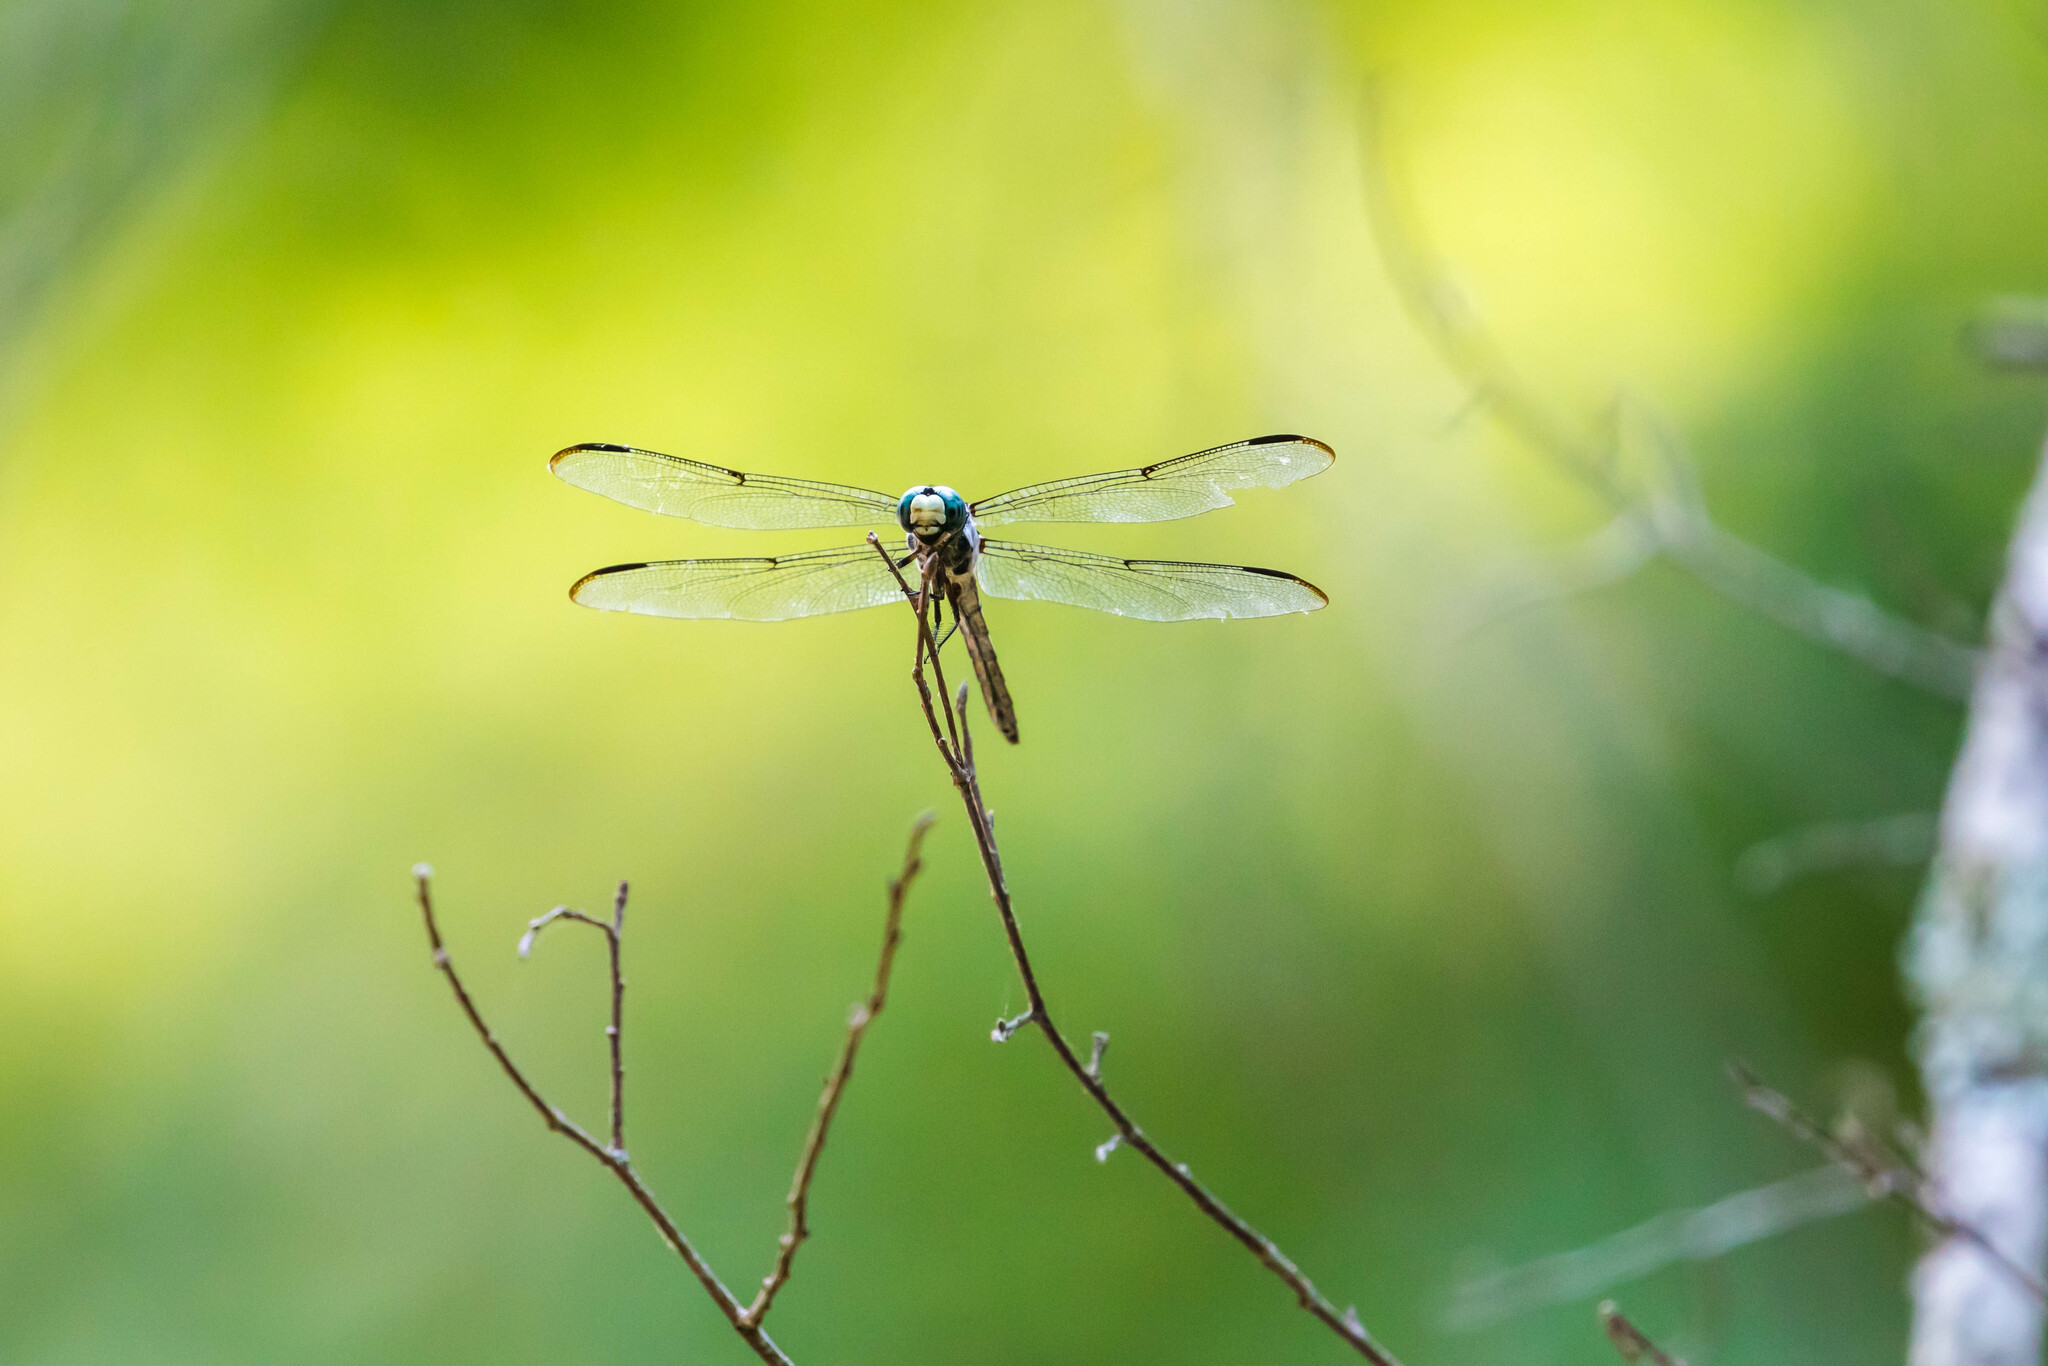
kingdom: Animalia
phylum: Arthropoda
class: Insecta
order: Odonata
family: Libellulidae
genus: Libellula
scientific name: Libellula vibrans
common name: Great blue skimmer
